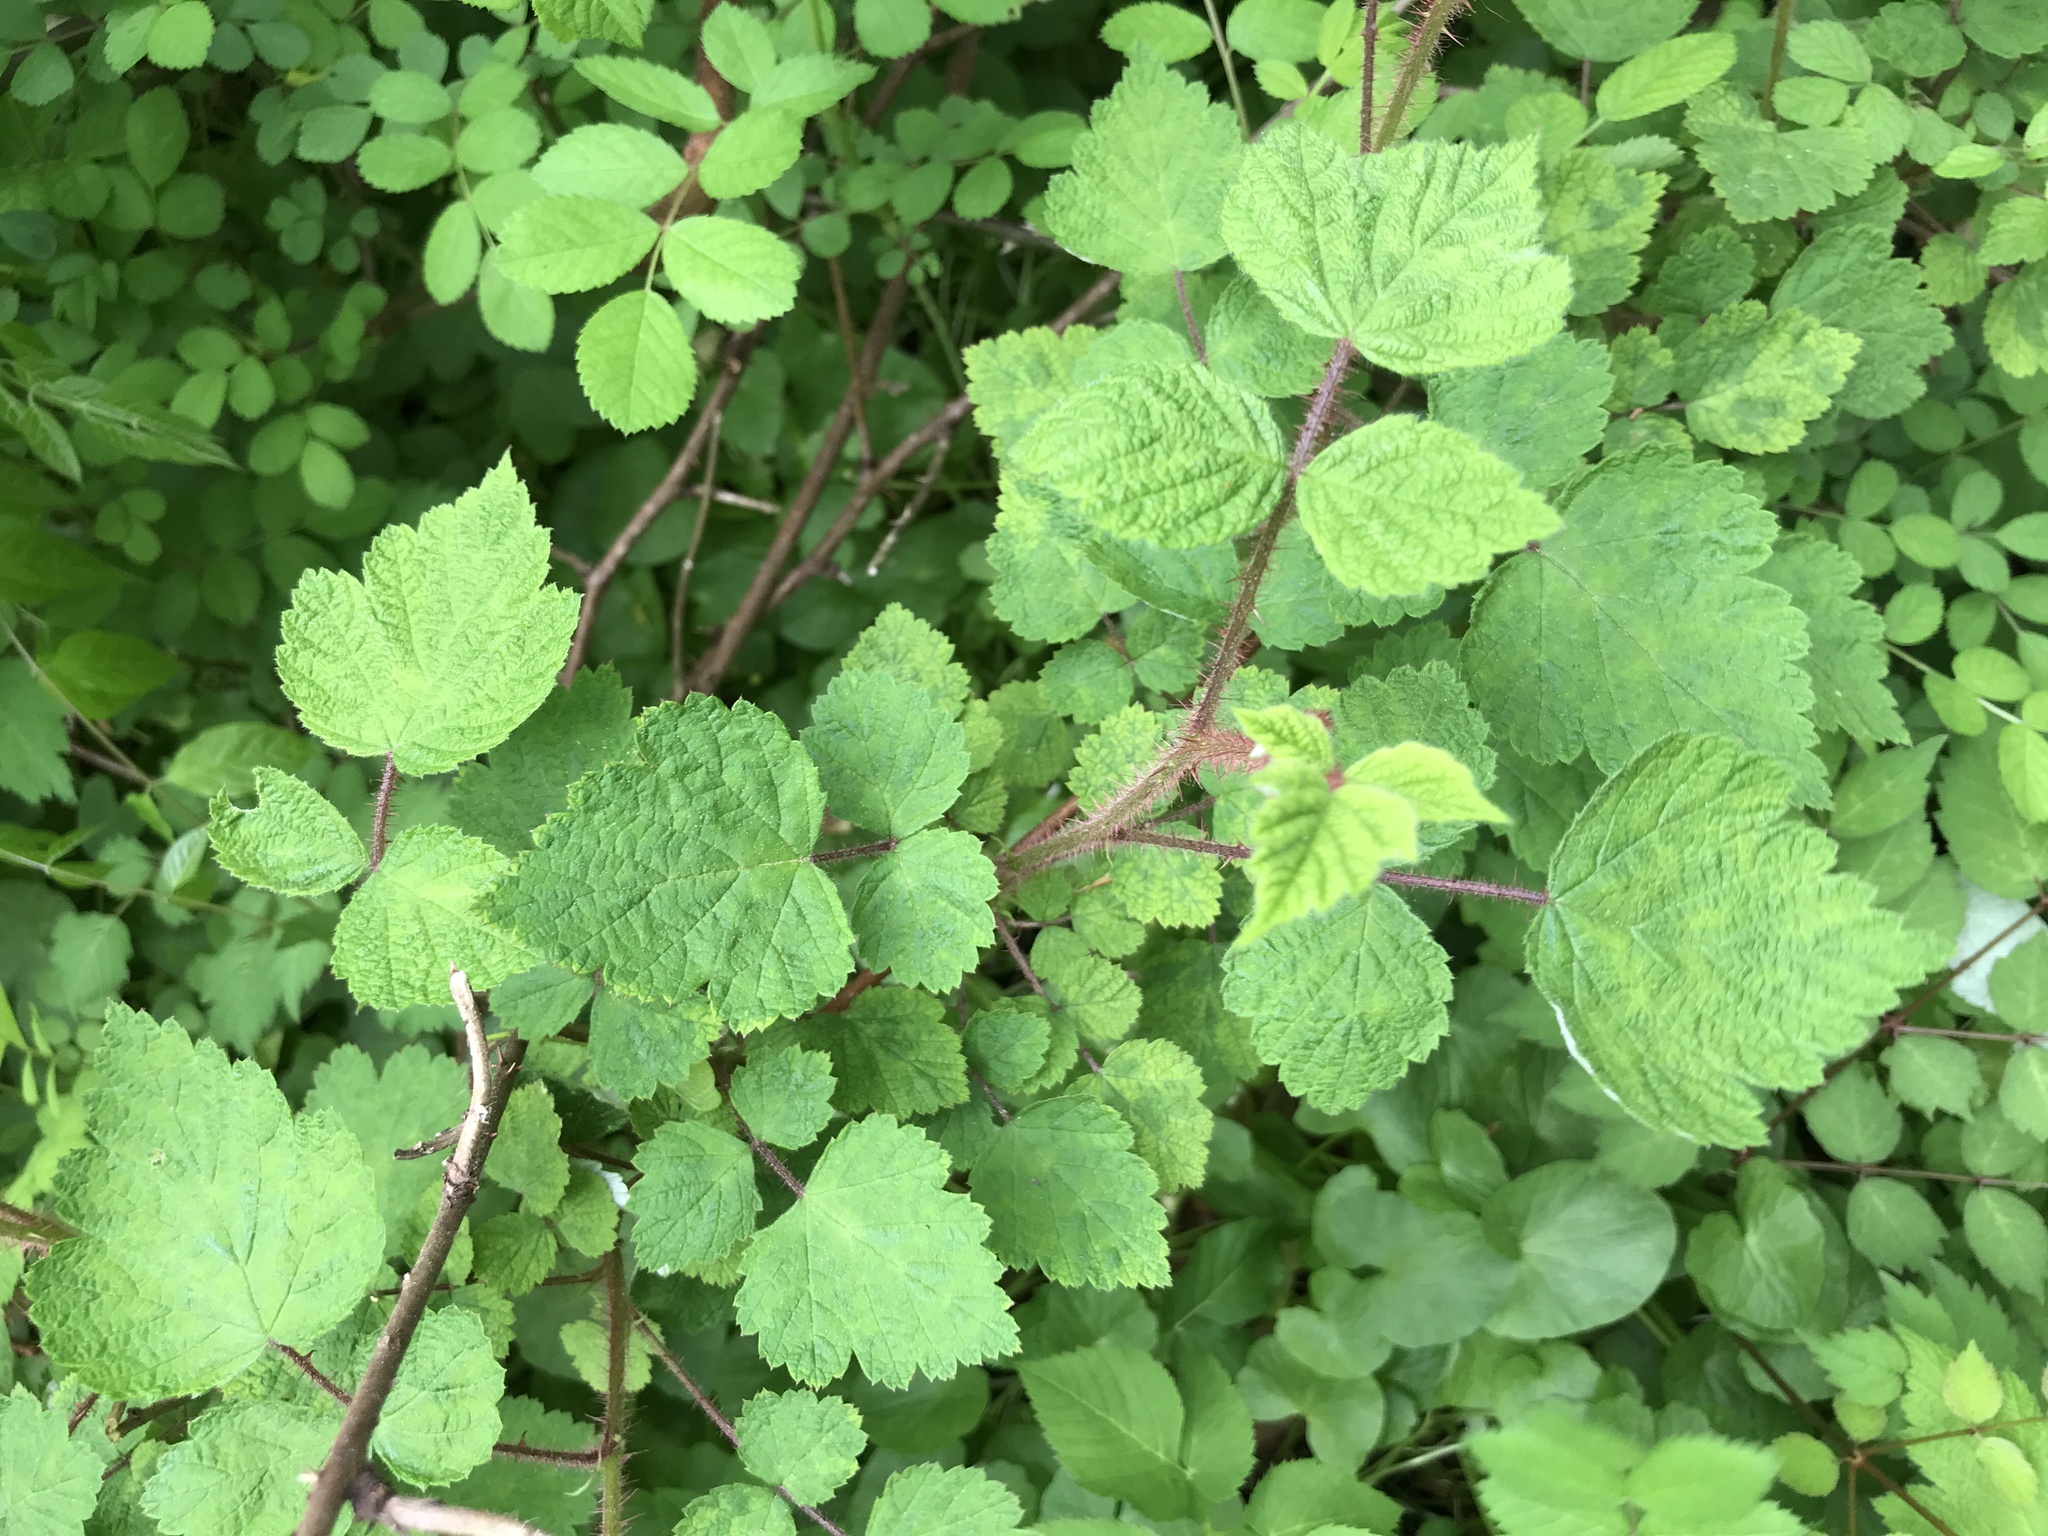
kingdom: Plantae
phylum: Tracheophyta
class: Magnoliopsida
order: Rosales
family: Rosaceae
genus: Rubus
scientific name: Rubus phoenicolasius
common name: Japanese wineberry
